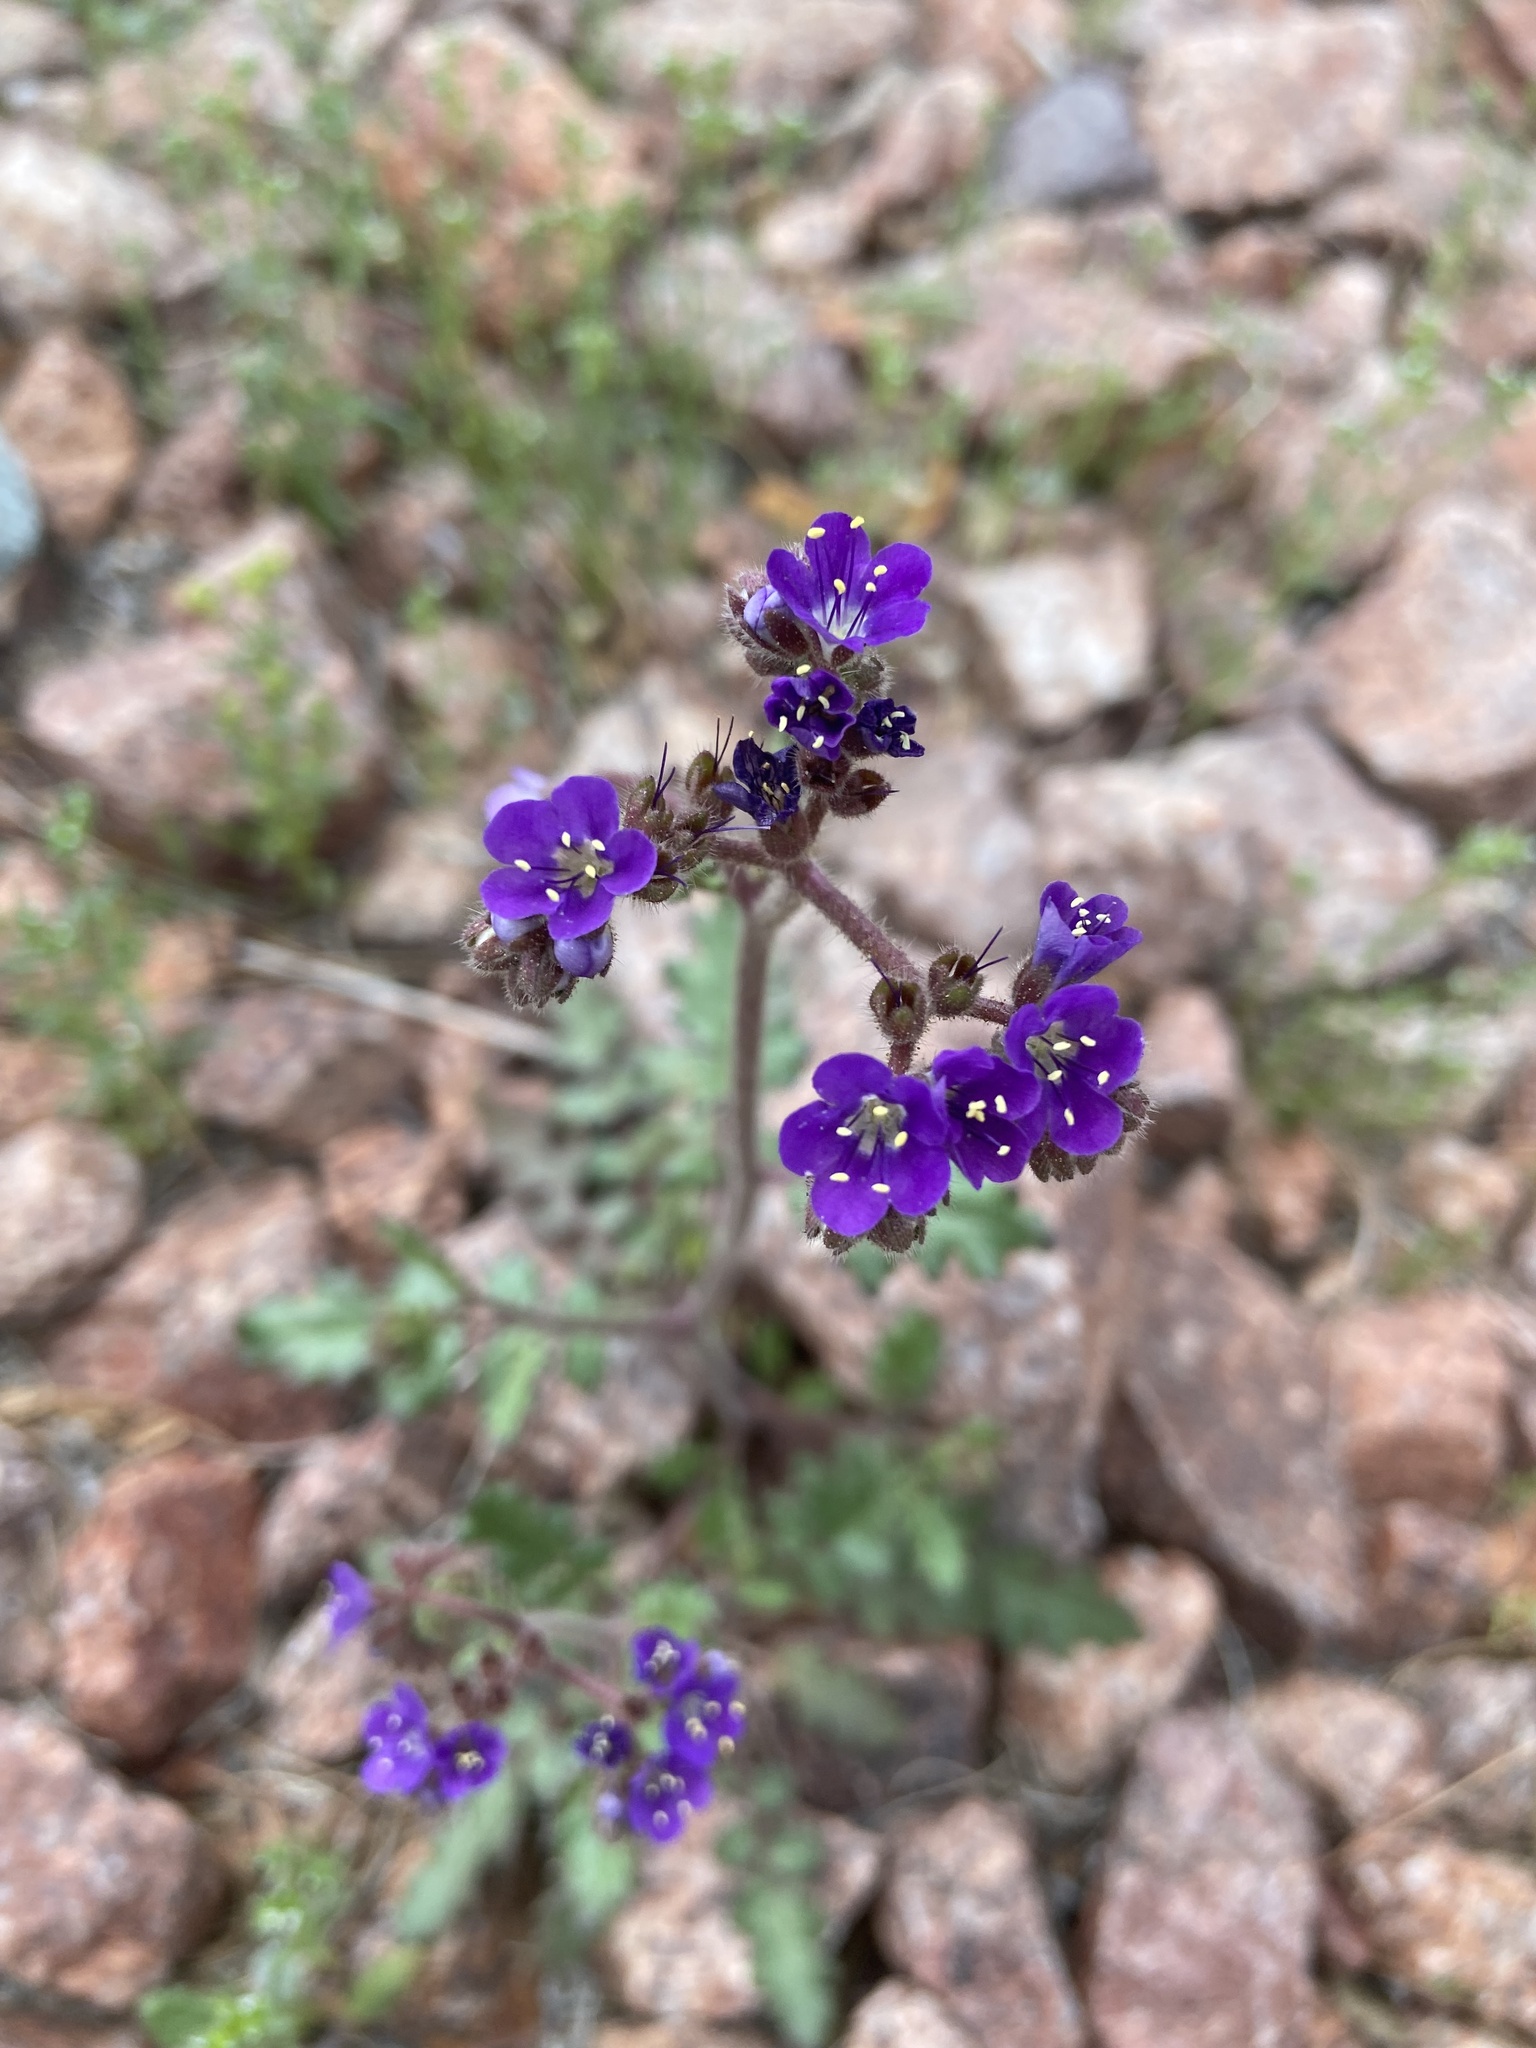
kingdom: Plantae
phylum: Tracheophyta
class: Magnoliopsida
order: Boraginales
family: Hydrophyllaceae
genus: Phacelia
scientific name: Phacelia crenulata
